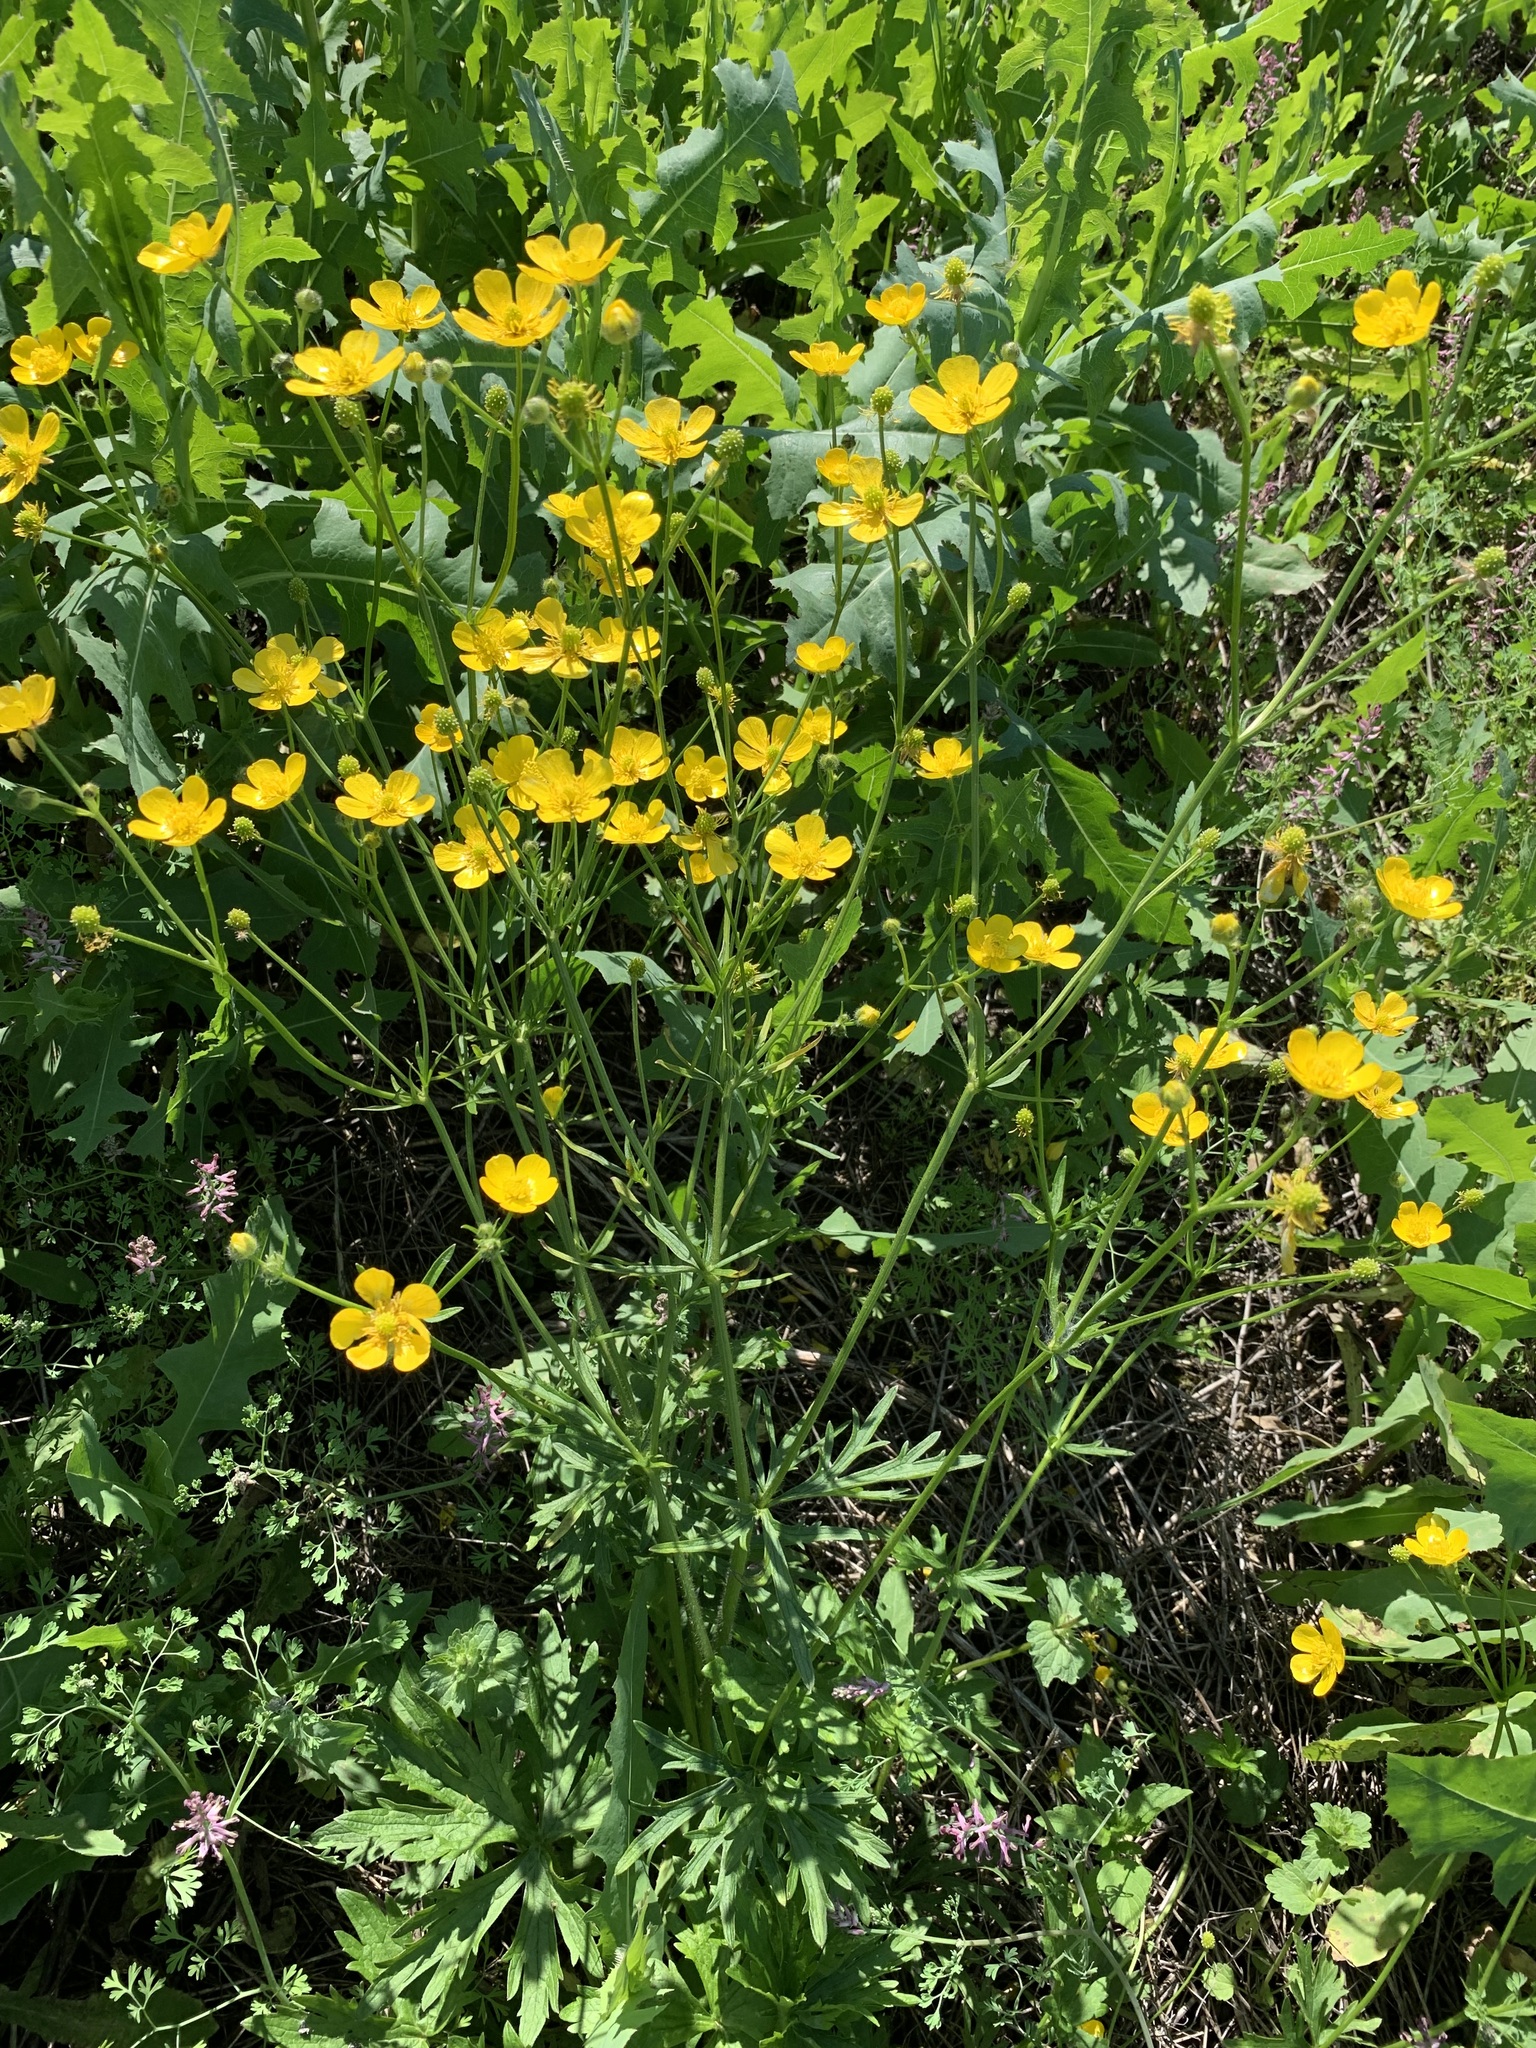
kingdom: Plantae
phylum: Tracheophyta
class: Magnoliopsida
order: Ranunculales
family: Ranunculaceae
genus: Ranunculus
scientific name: Ranunculus polyanthemos
